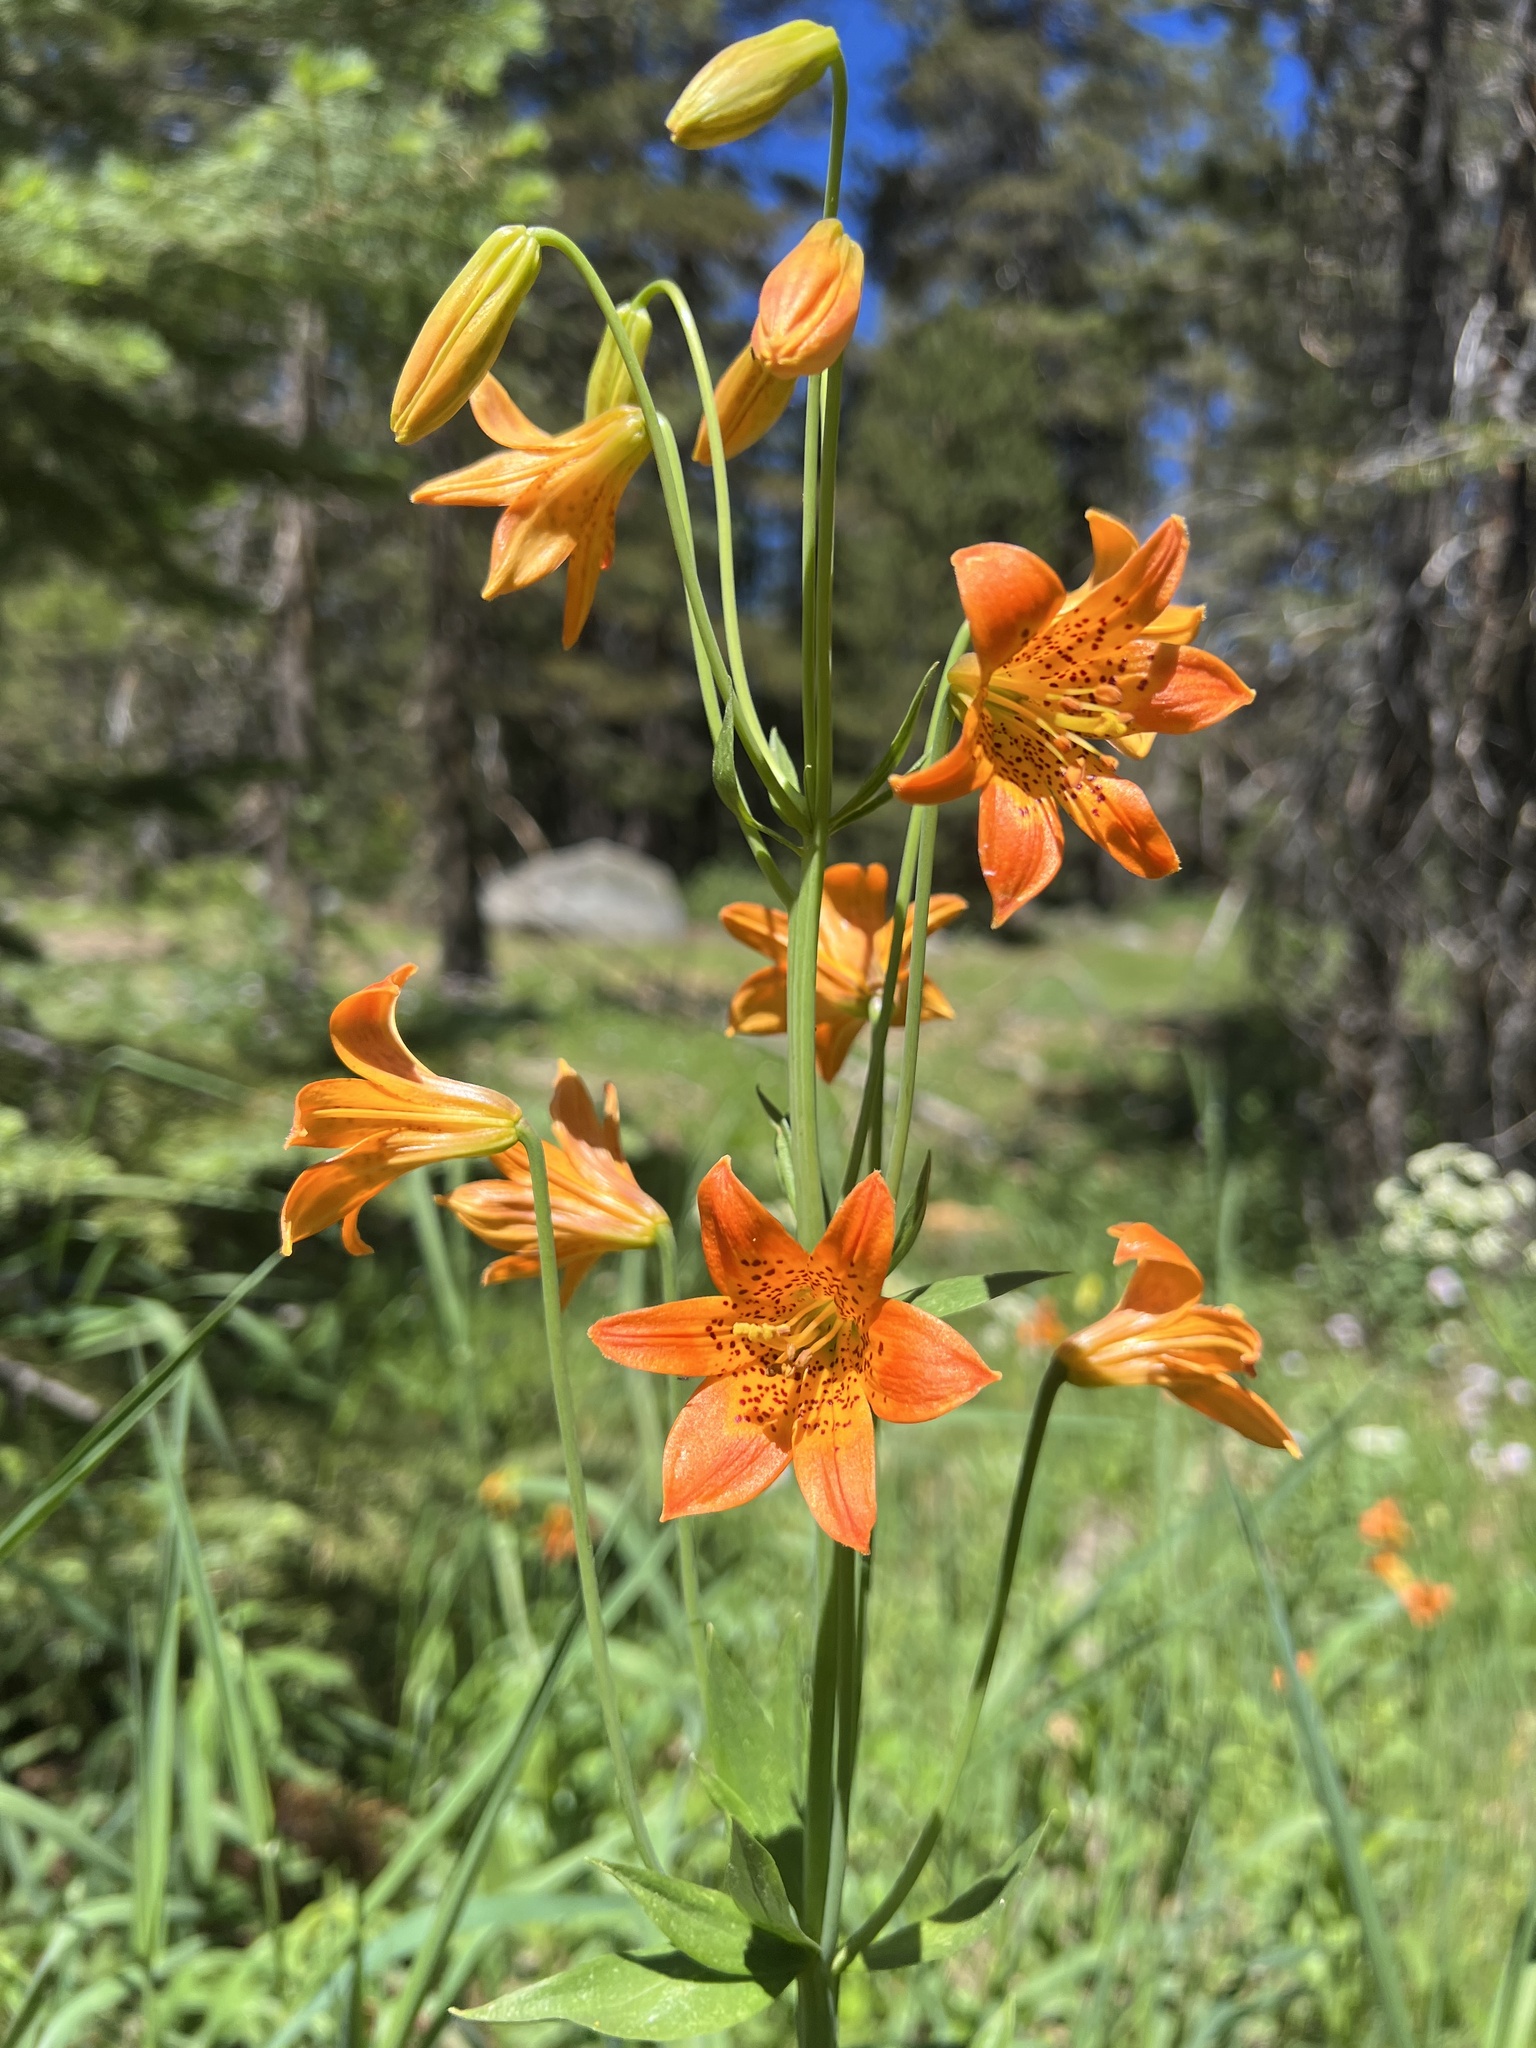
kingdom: Plantae
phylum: Tracheophyta
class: Liliopsida
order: Liliales
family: Liliaceae
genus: Lilium
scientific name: Lilium parvum
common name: Alpine lily
